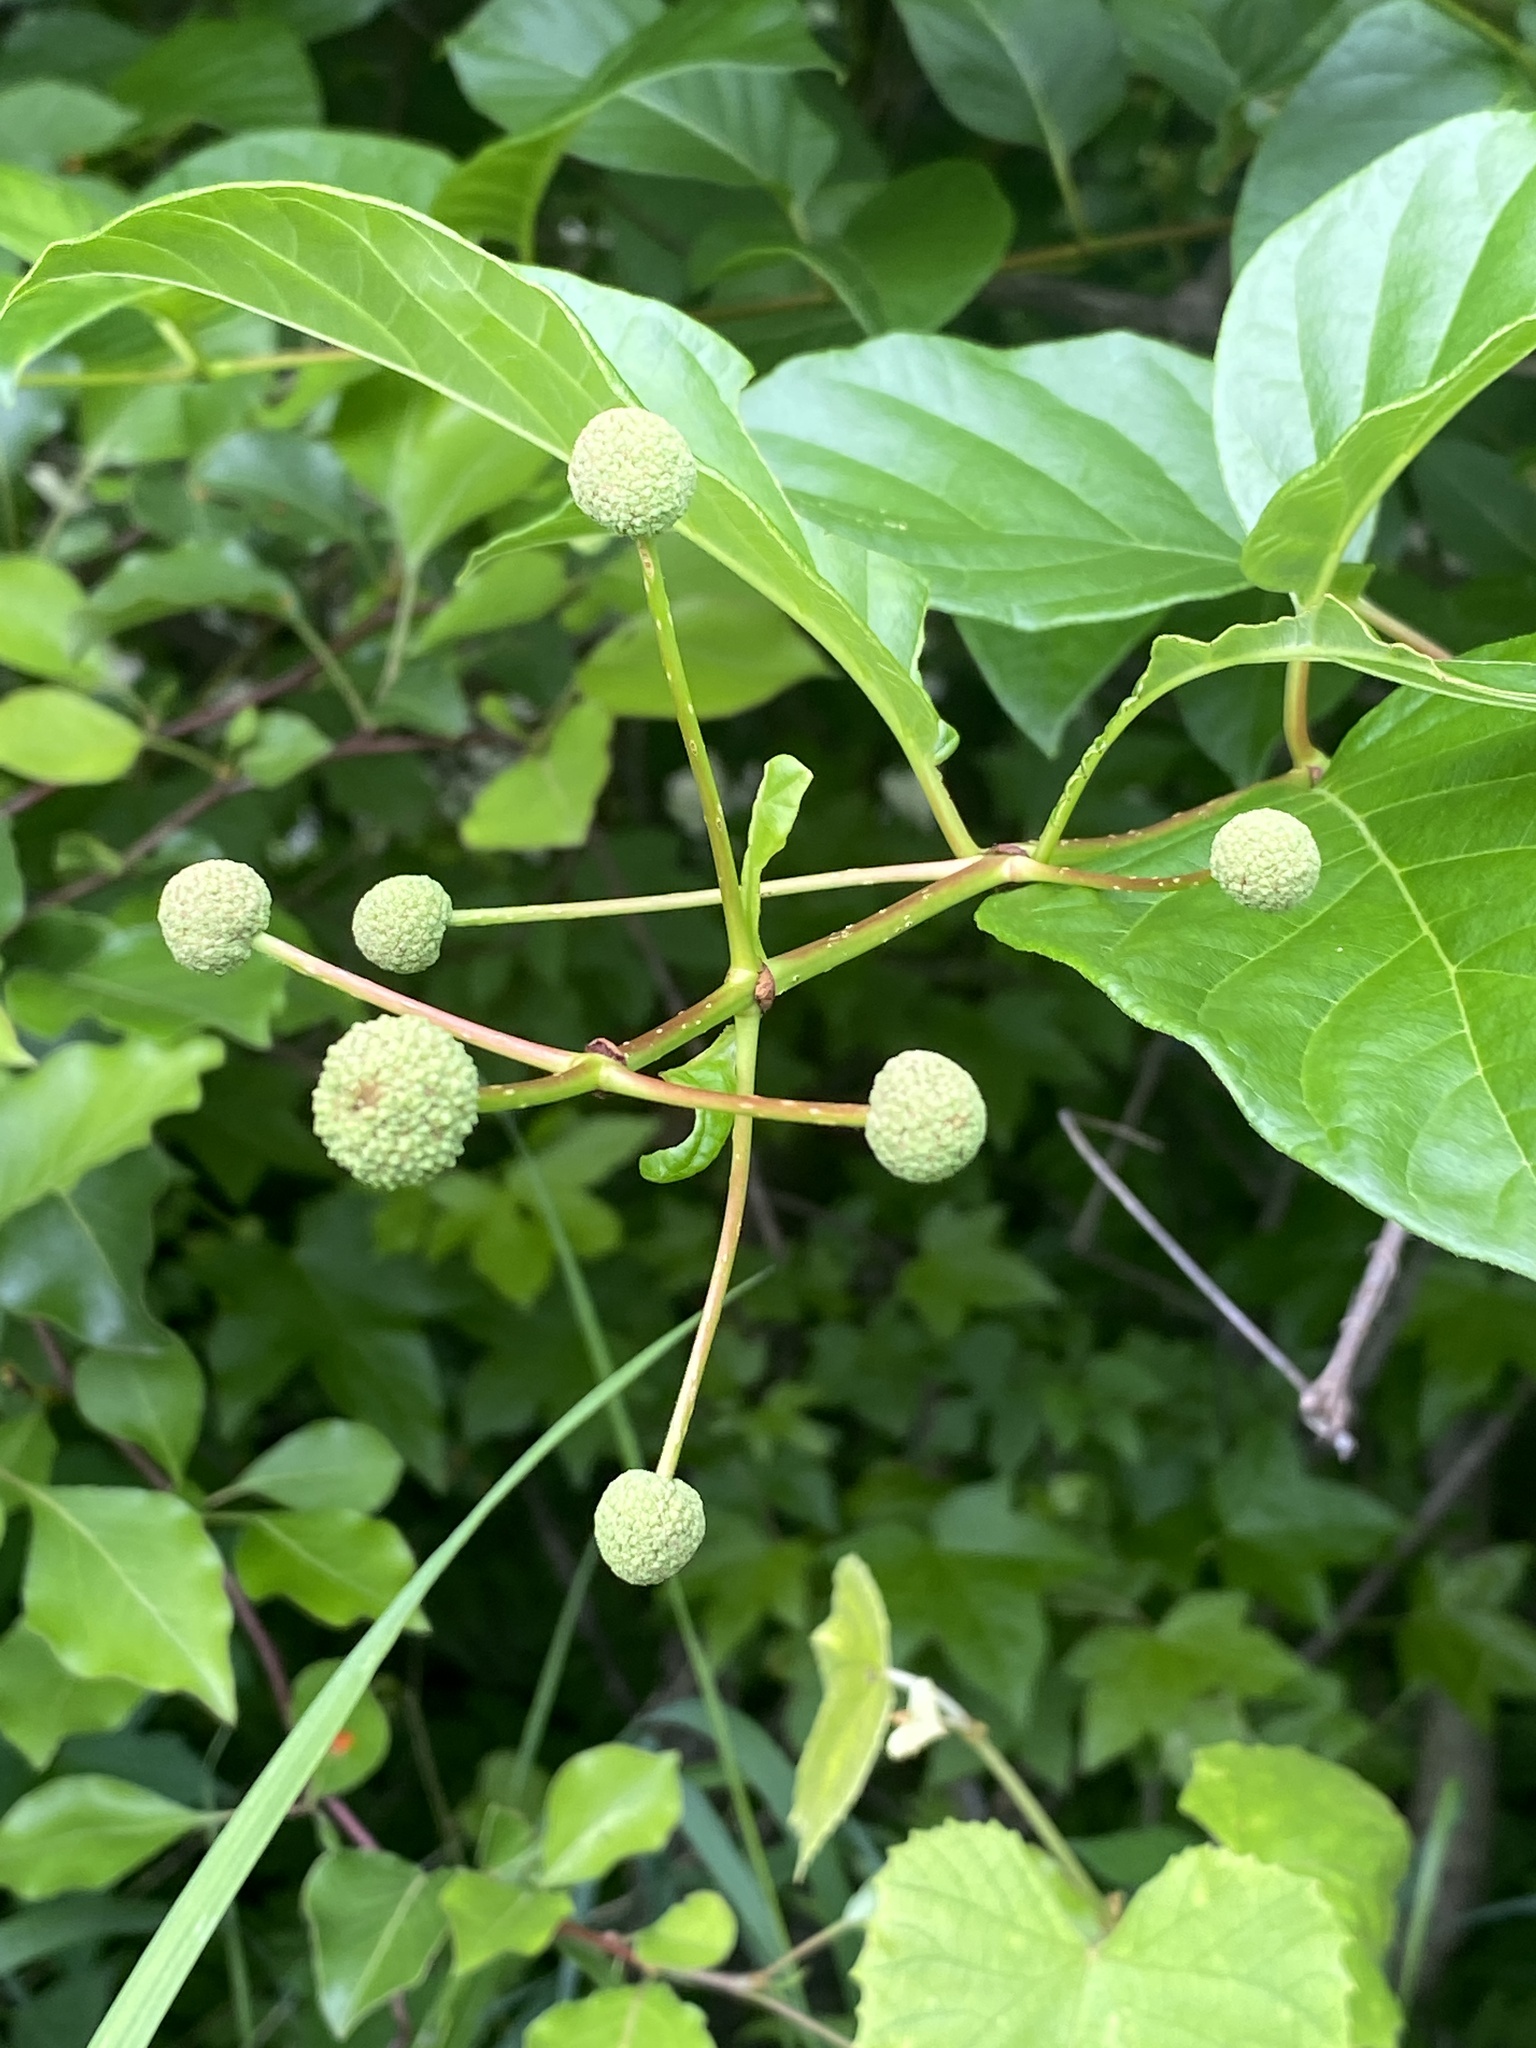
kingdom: Plantae
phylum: Tracheophyta
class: Magnoliopsida
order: Gentianales
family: Rubiaceae
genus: Cephalanthus
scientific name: Cephalanthus occidentalis
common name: Button-willow
